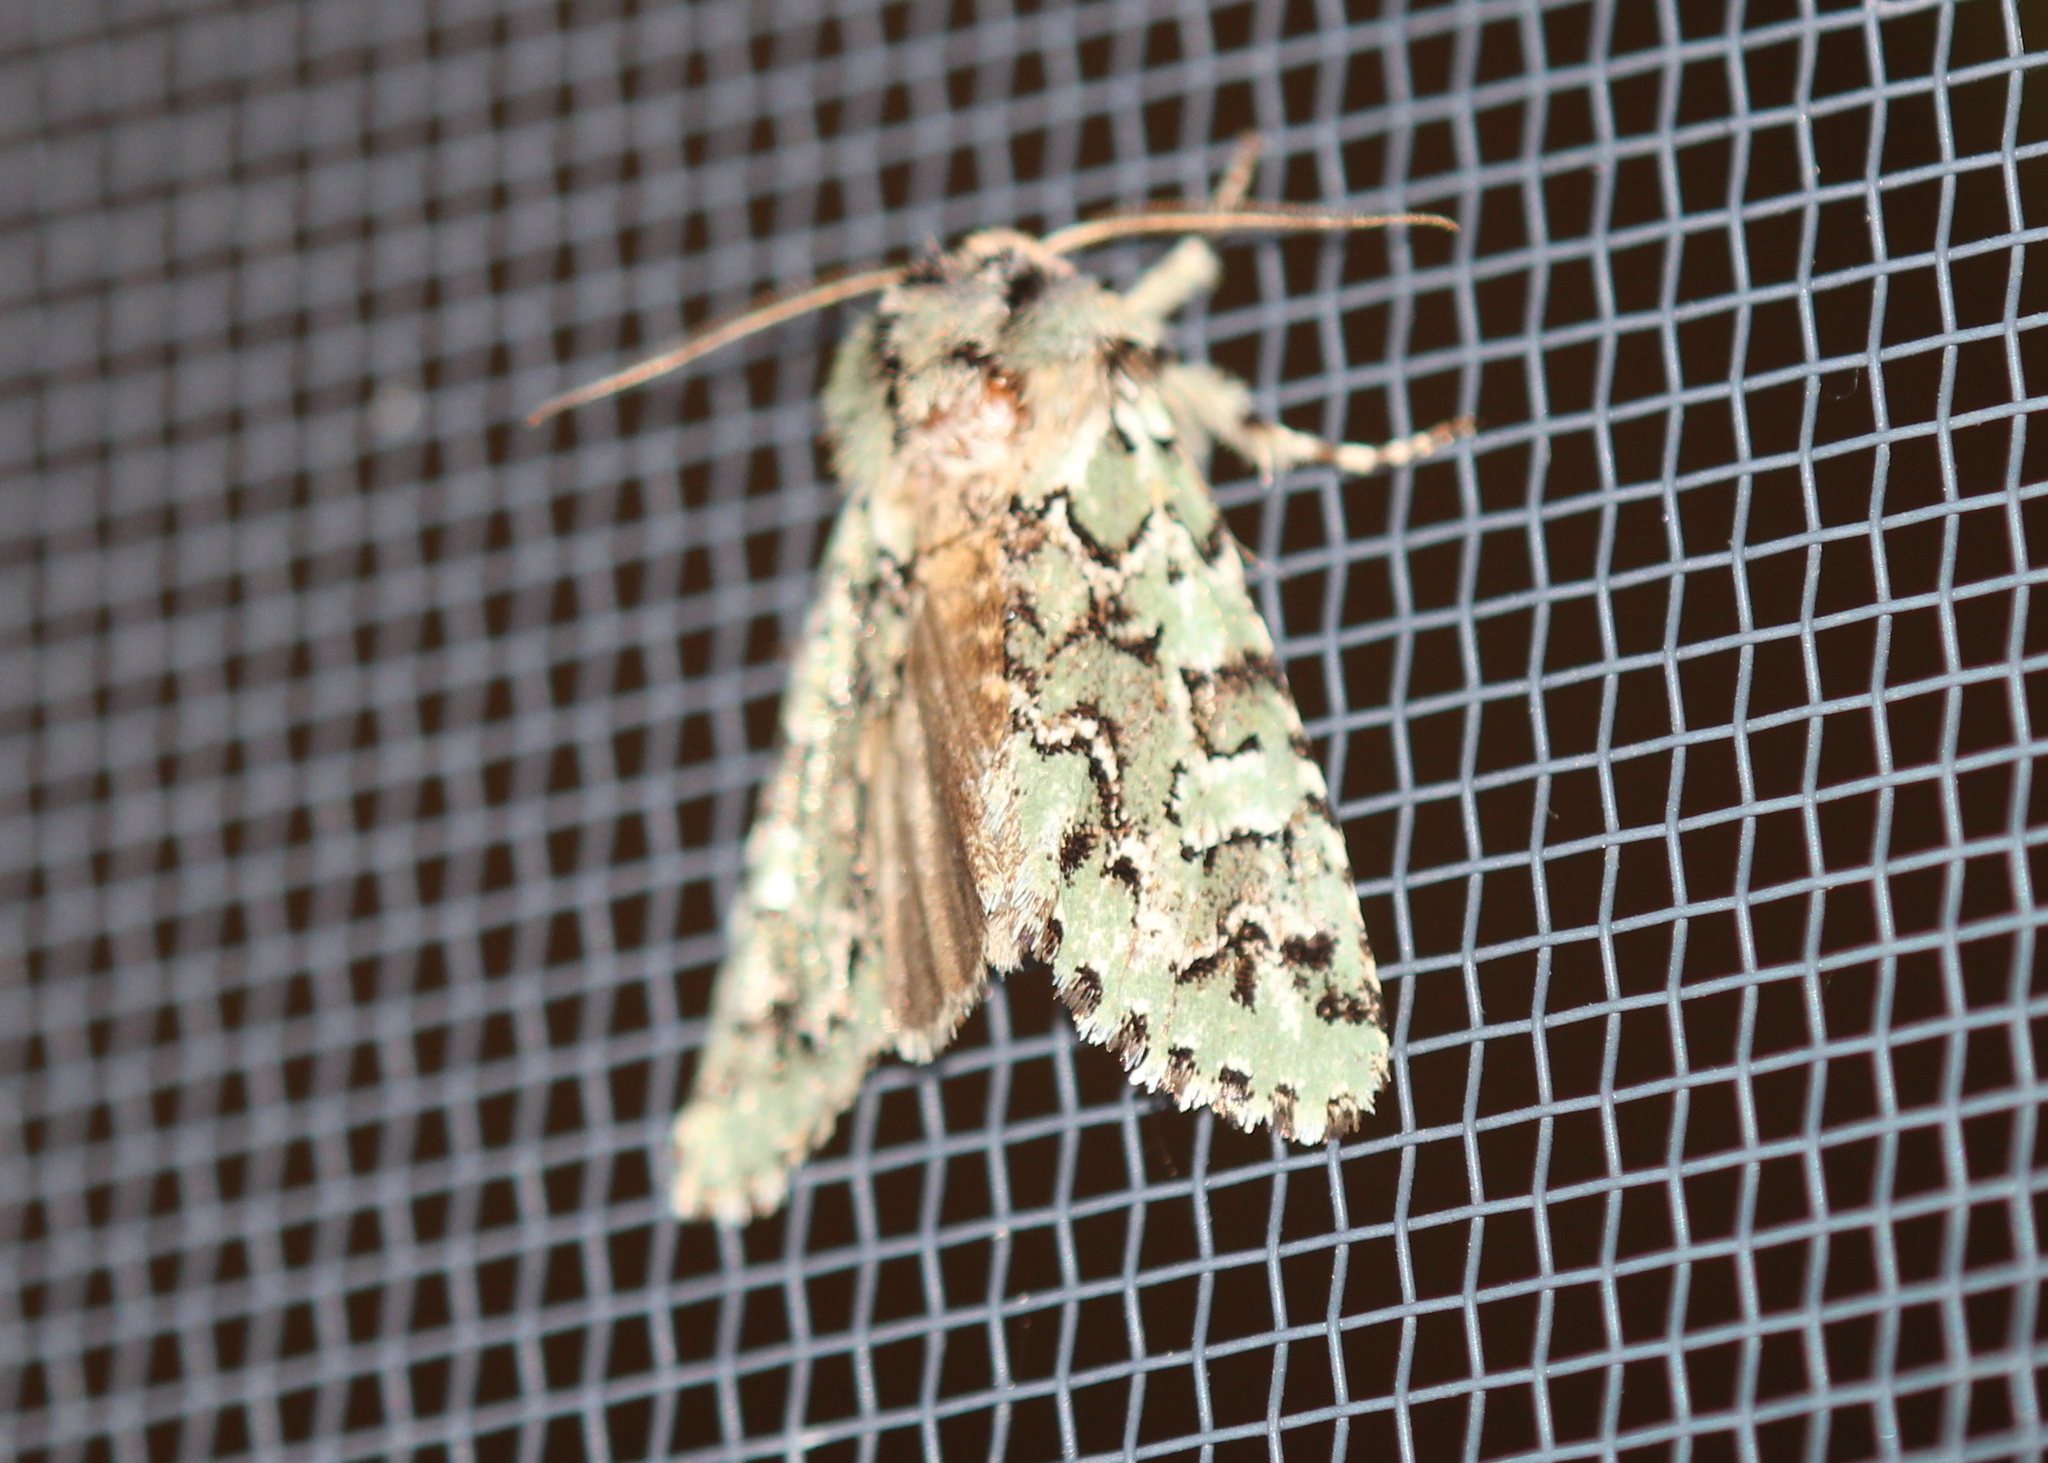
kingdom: Animalia
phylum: Arthropoda
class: Insecta
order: Lepidoptera
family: Noctuidae
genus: Feralia
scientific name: Feralia jocosa
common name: Joker
